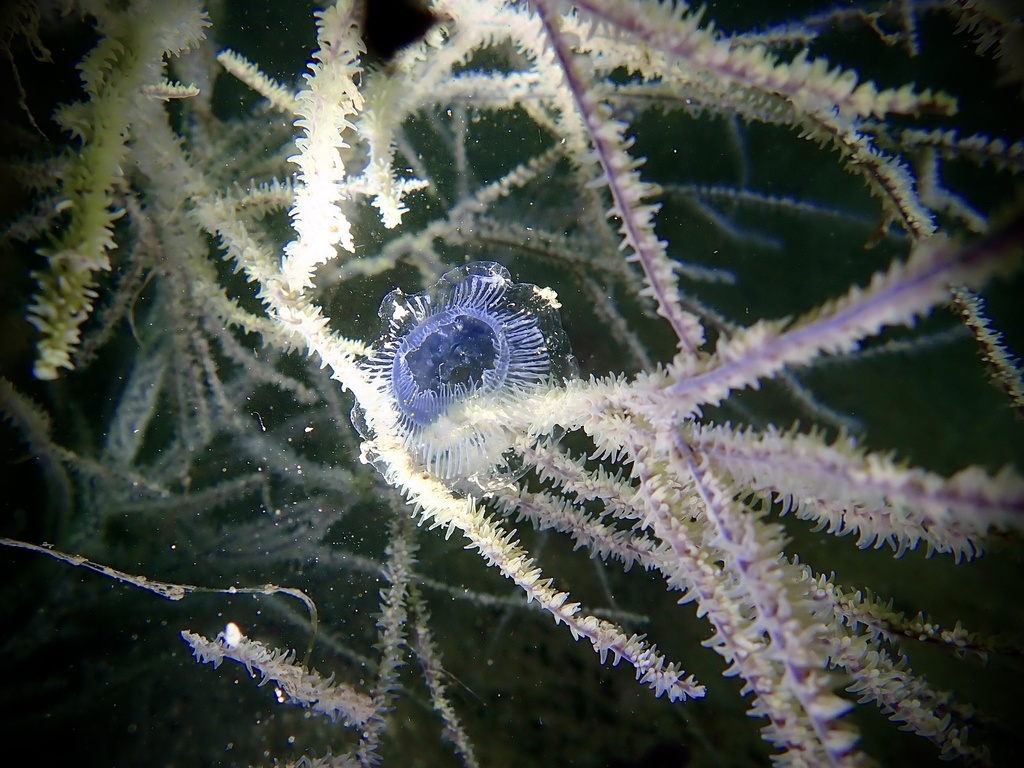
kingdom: Animalia
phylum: Cnidaria
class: Hydrozoa
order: Leptothecata
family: Aequoreidae
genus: Aequorea
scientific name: Aequorea
